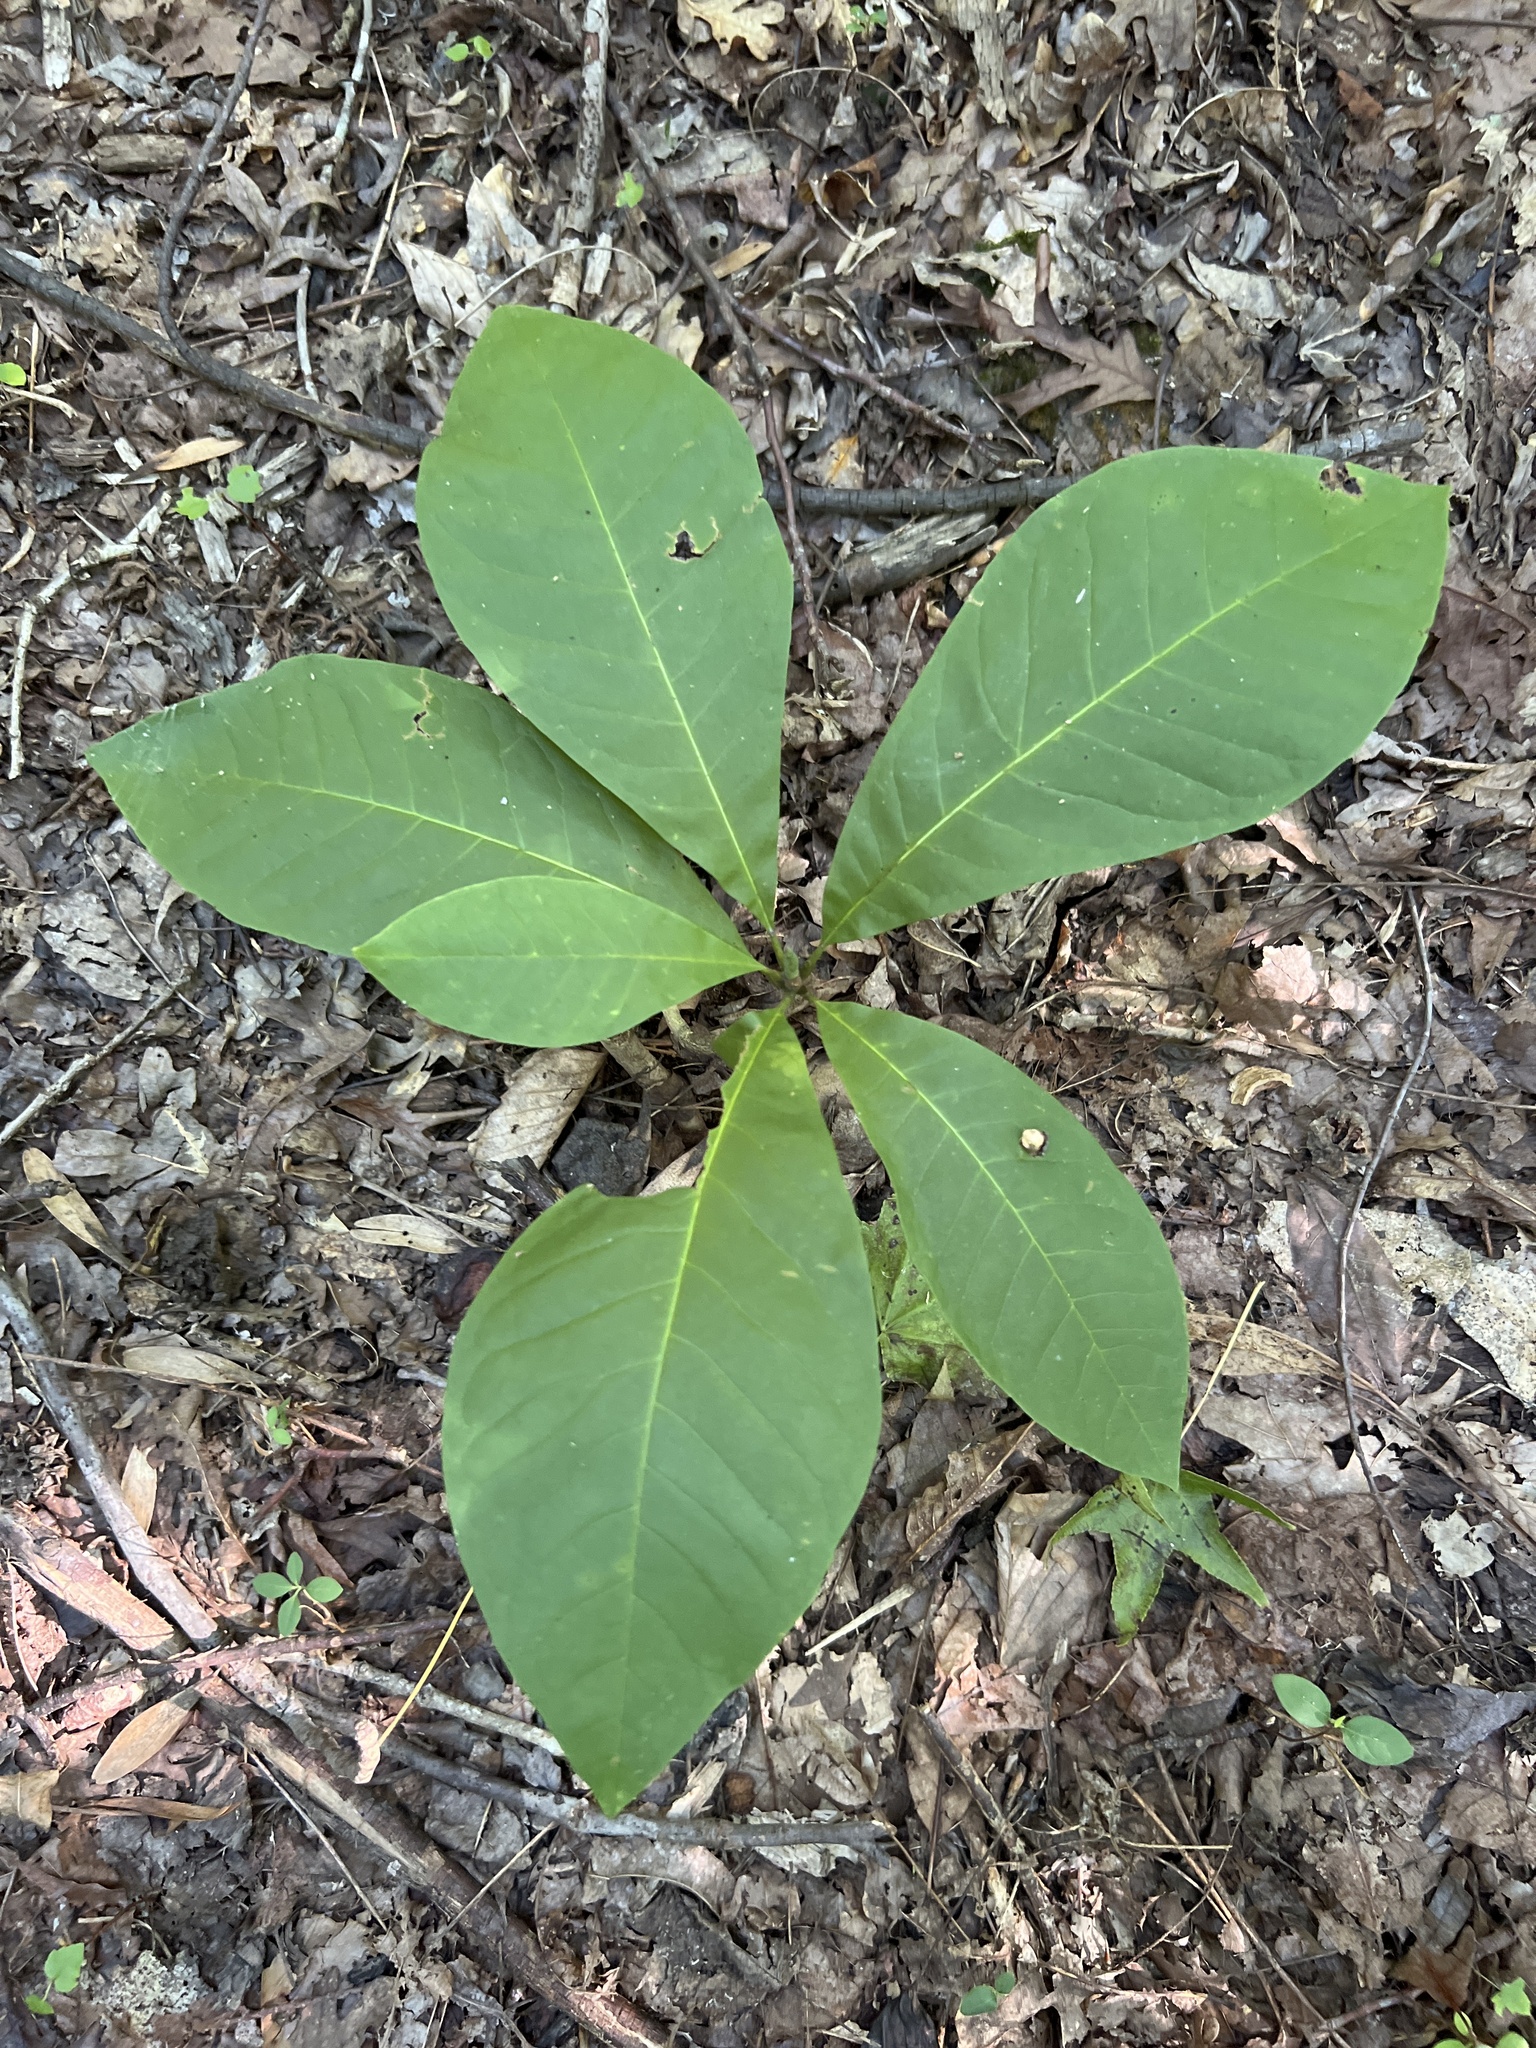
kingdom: Plantae
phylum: Tracheophyta
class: Magnoliopsida
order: Magnoliales
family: Magnoliaceae
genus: Magnolia
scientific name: Magnolia tripetala
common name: Umbrella magnolia
